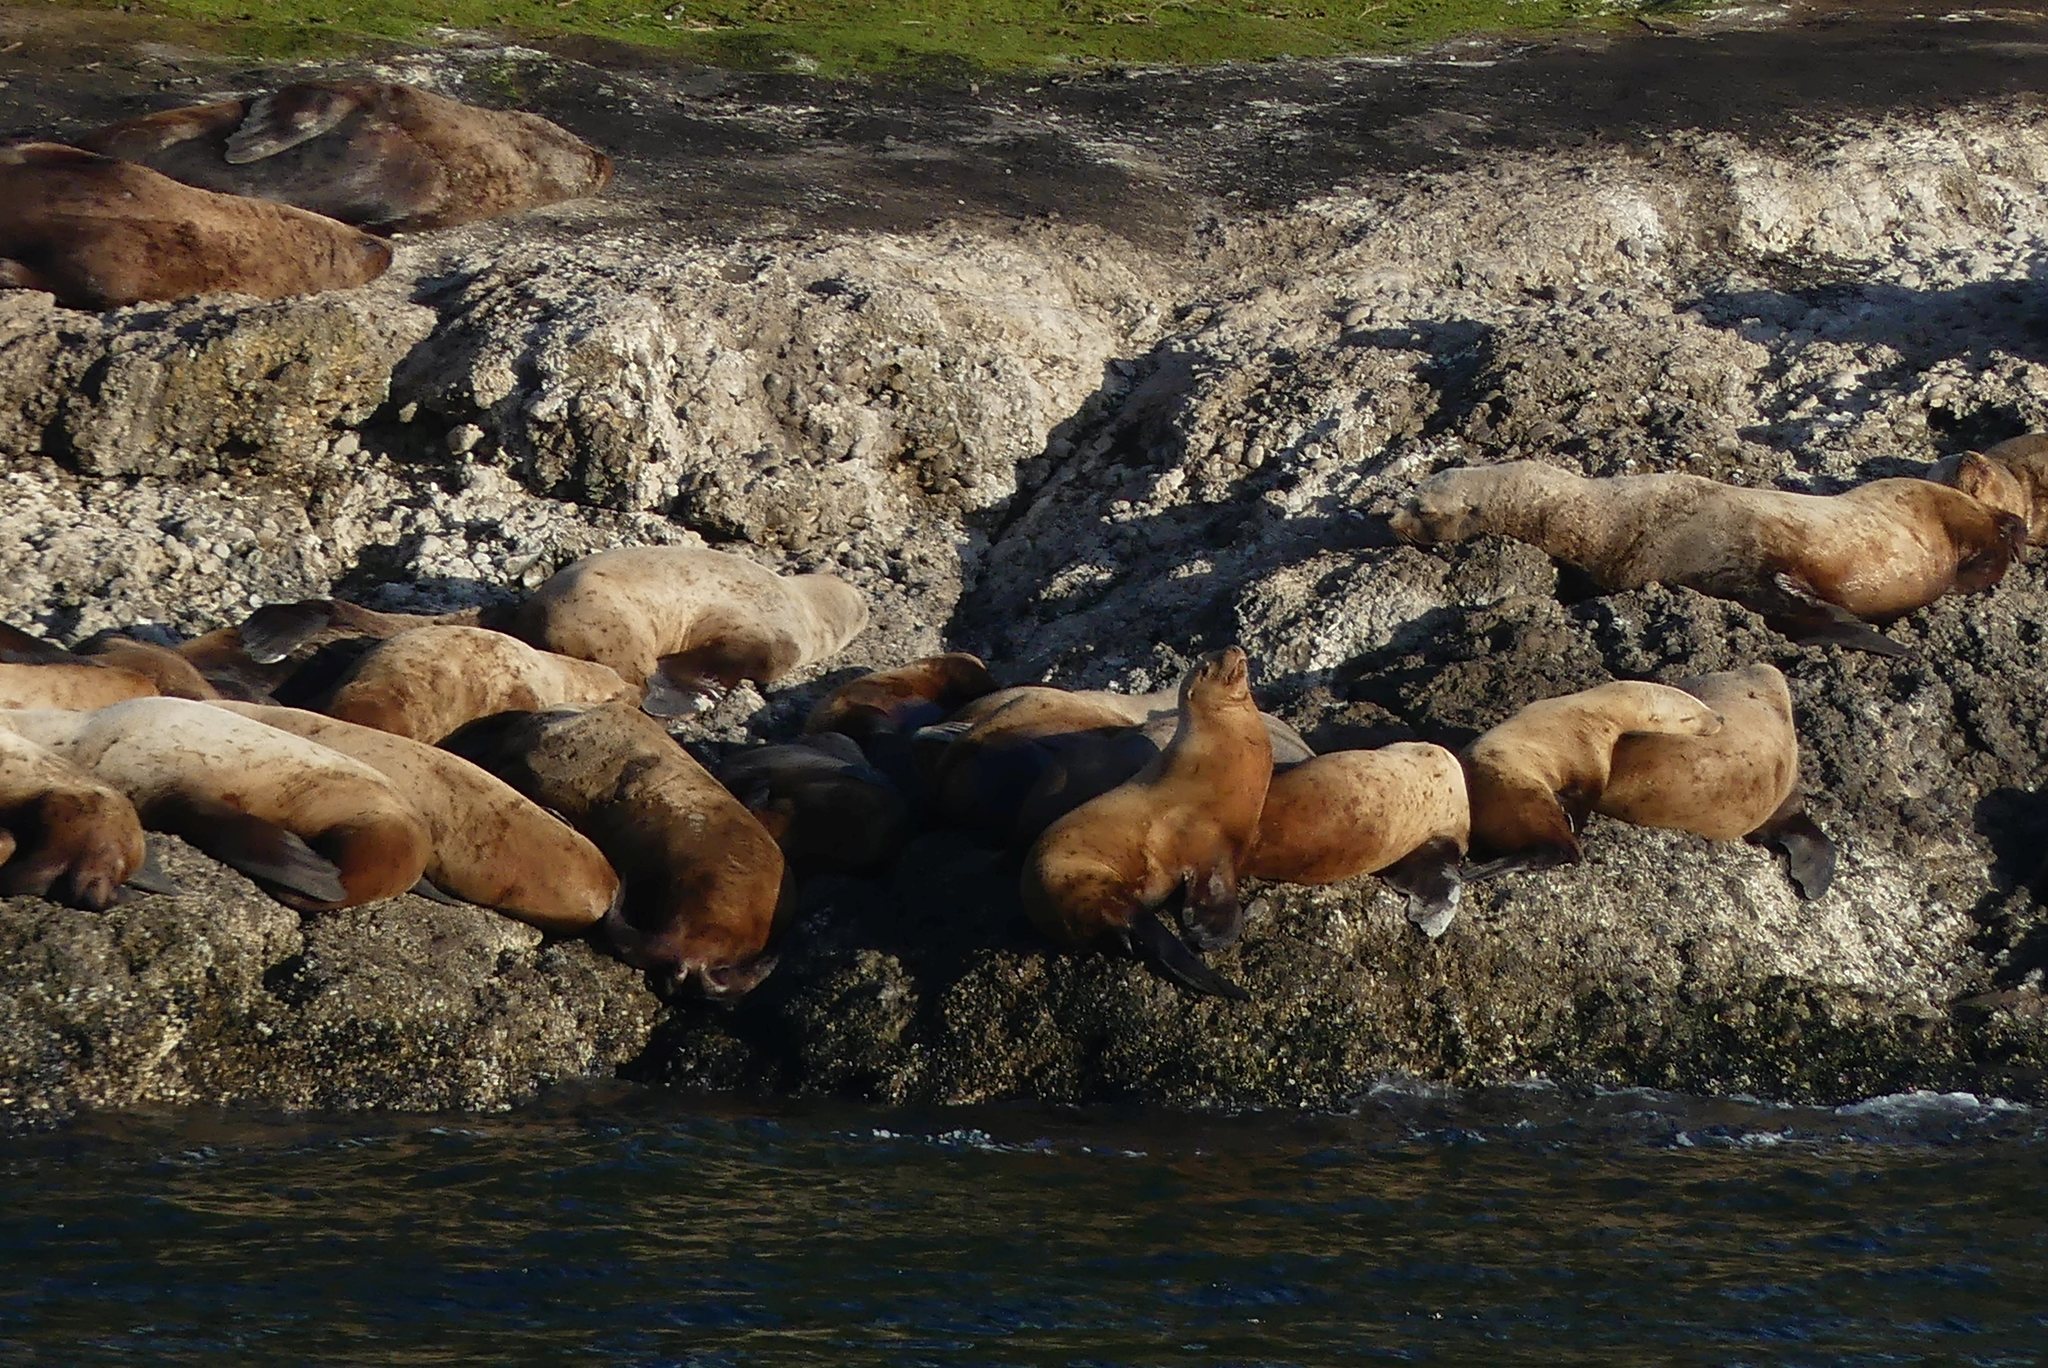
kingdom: Animalia
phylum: Chordata
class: Mammalia
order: Carnivora
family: Otariidae
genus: Eumetopias
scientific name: Eumetopias jubatus
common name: Steller sea lion
